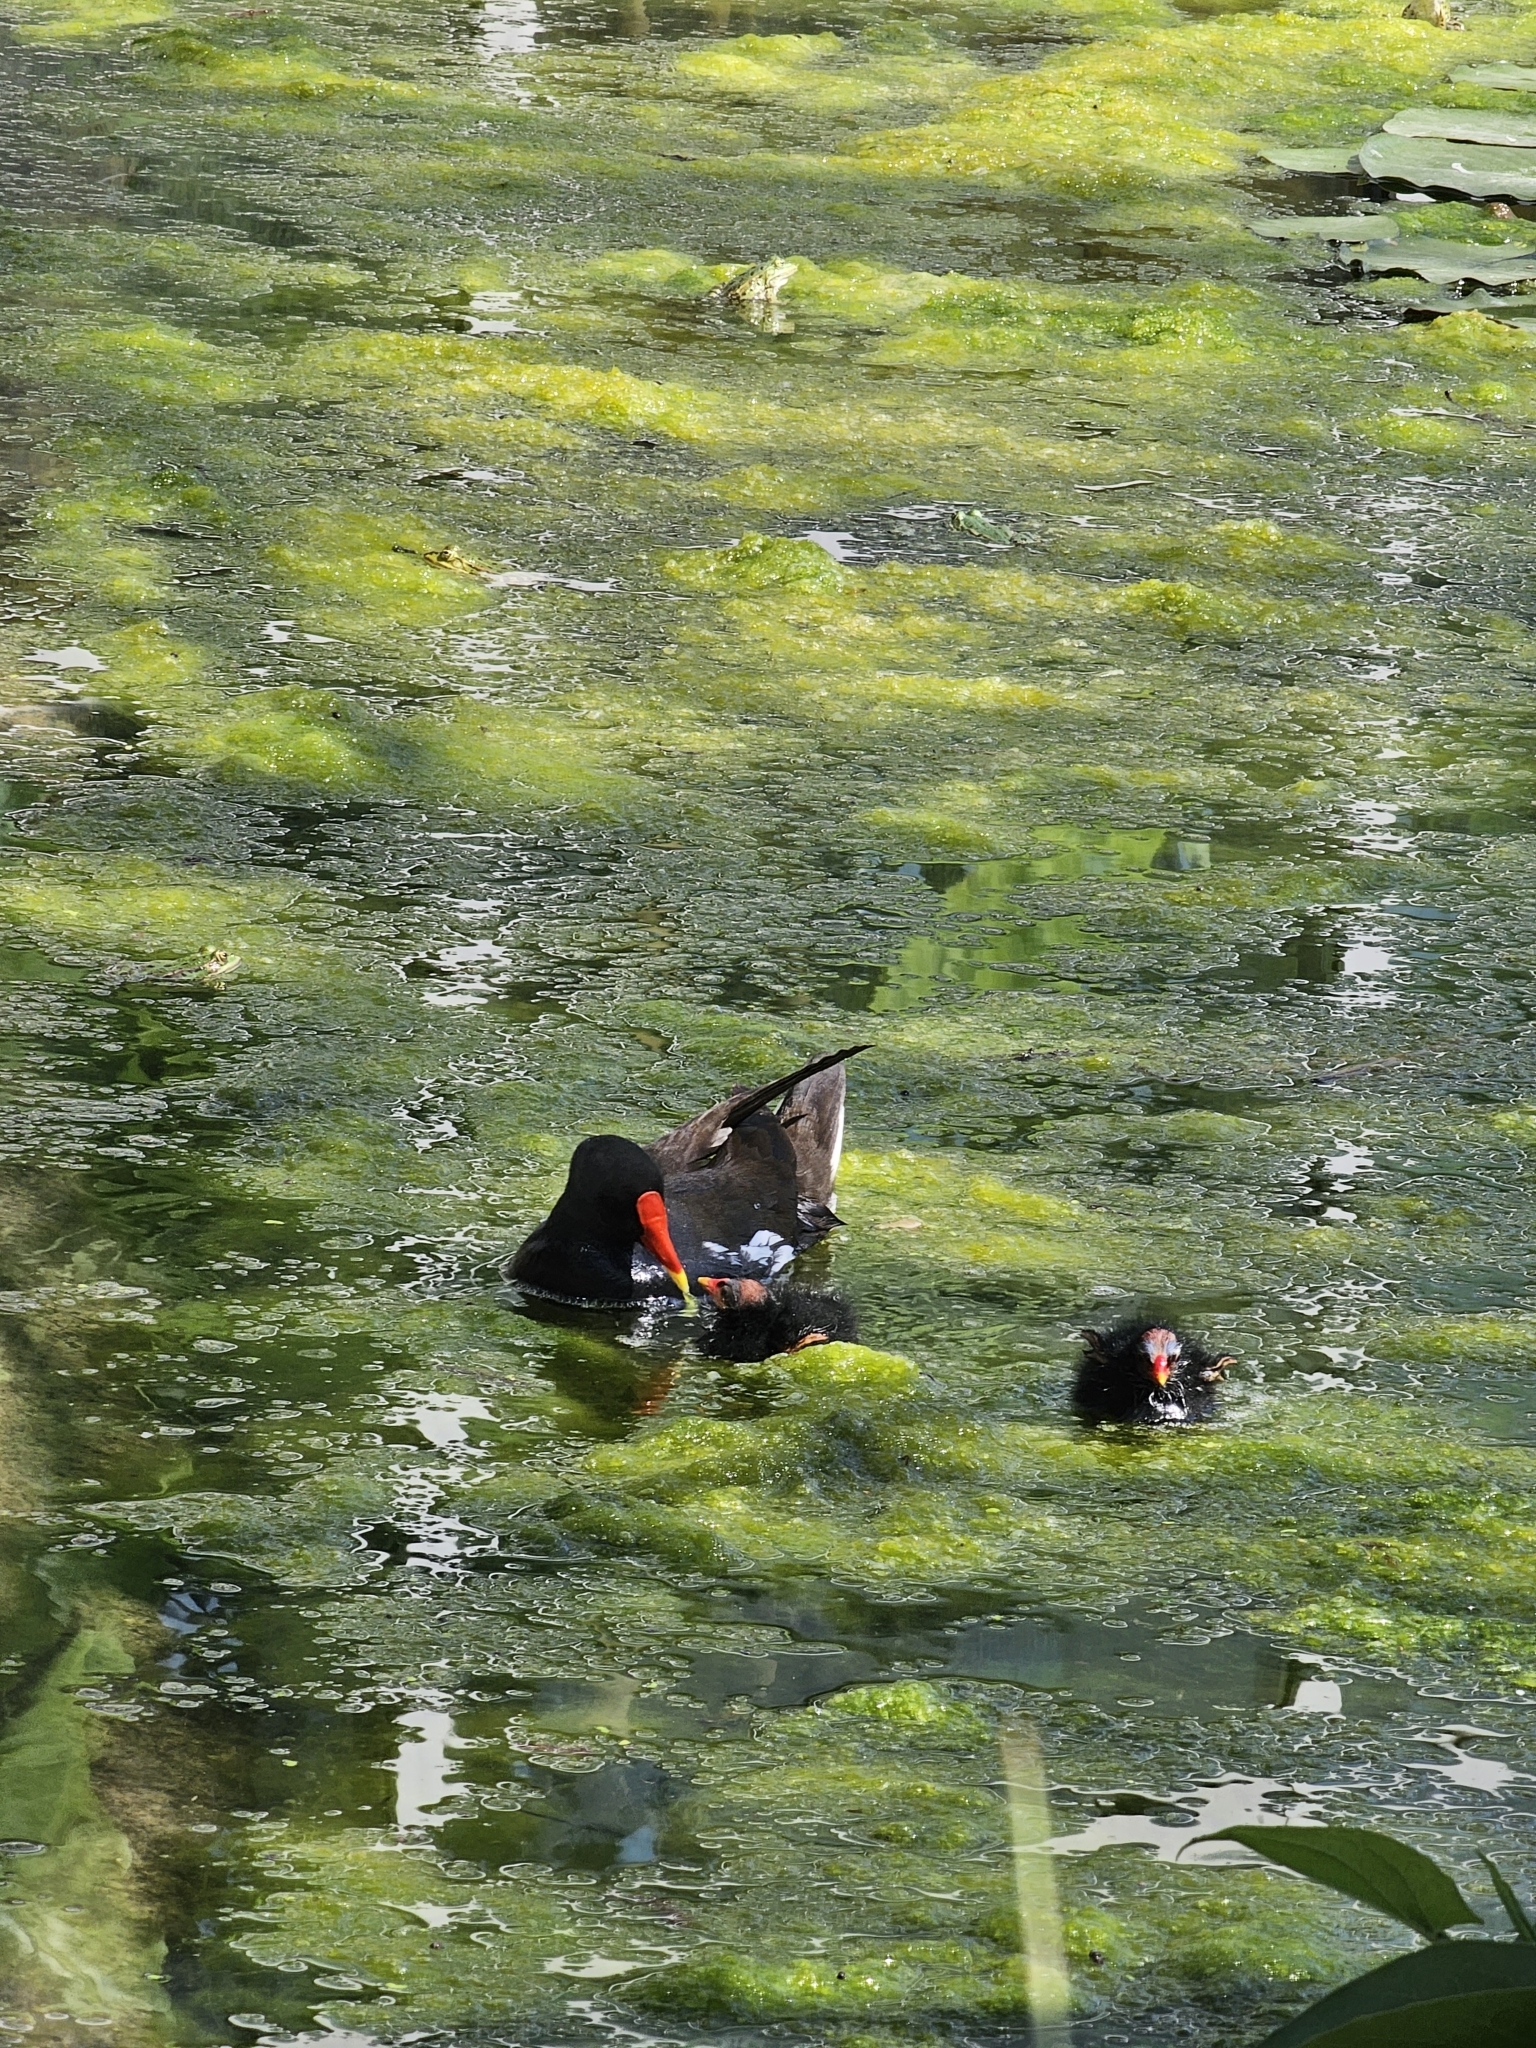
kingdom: Animalia
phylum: Chordata
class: Aves
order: Gruiformes
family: Rallidae
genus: Gallinula
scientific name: Gallinula chloropus
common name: Common moorhen
